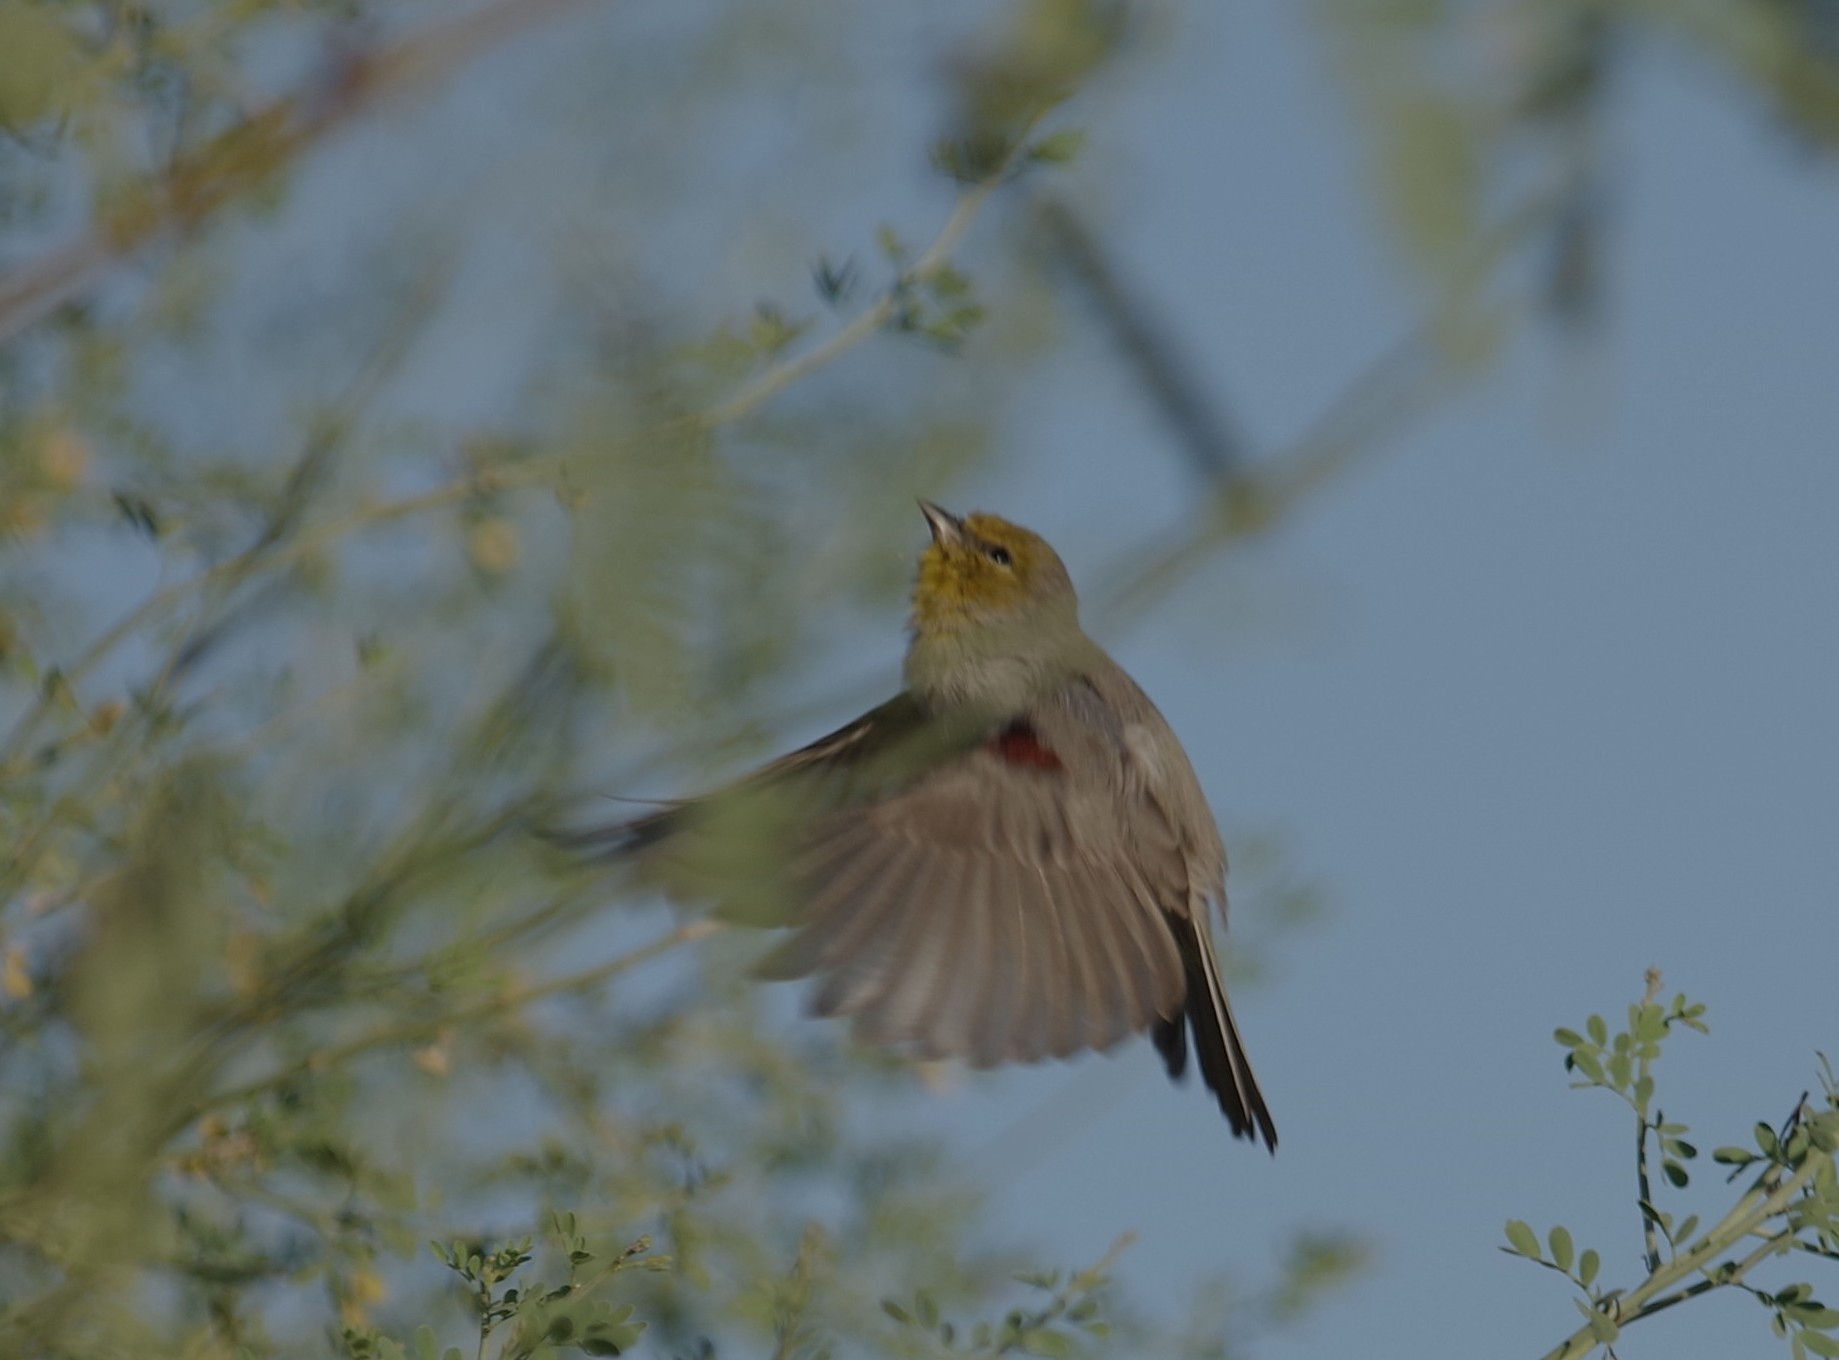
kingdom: Animalia
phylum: Chordata
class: Aves
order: Passeriformes
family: Remizidae
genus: Auriparus
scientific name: Auriparus flaviceps
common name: Verdin
